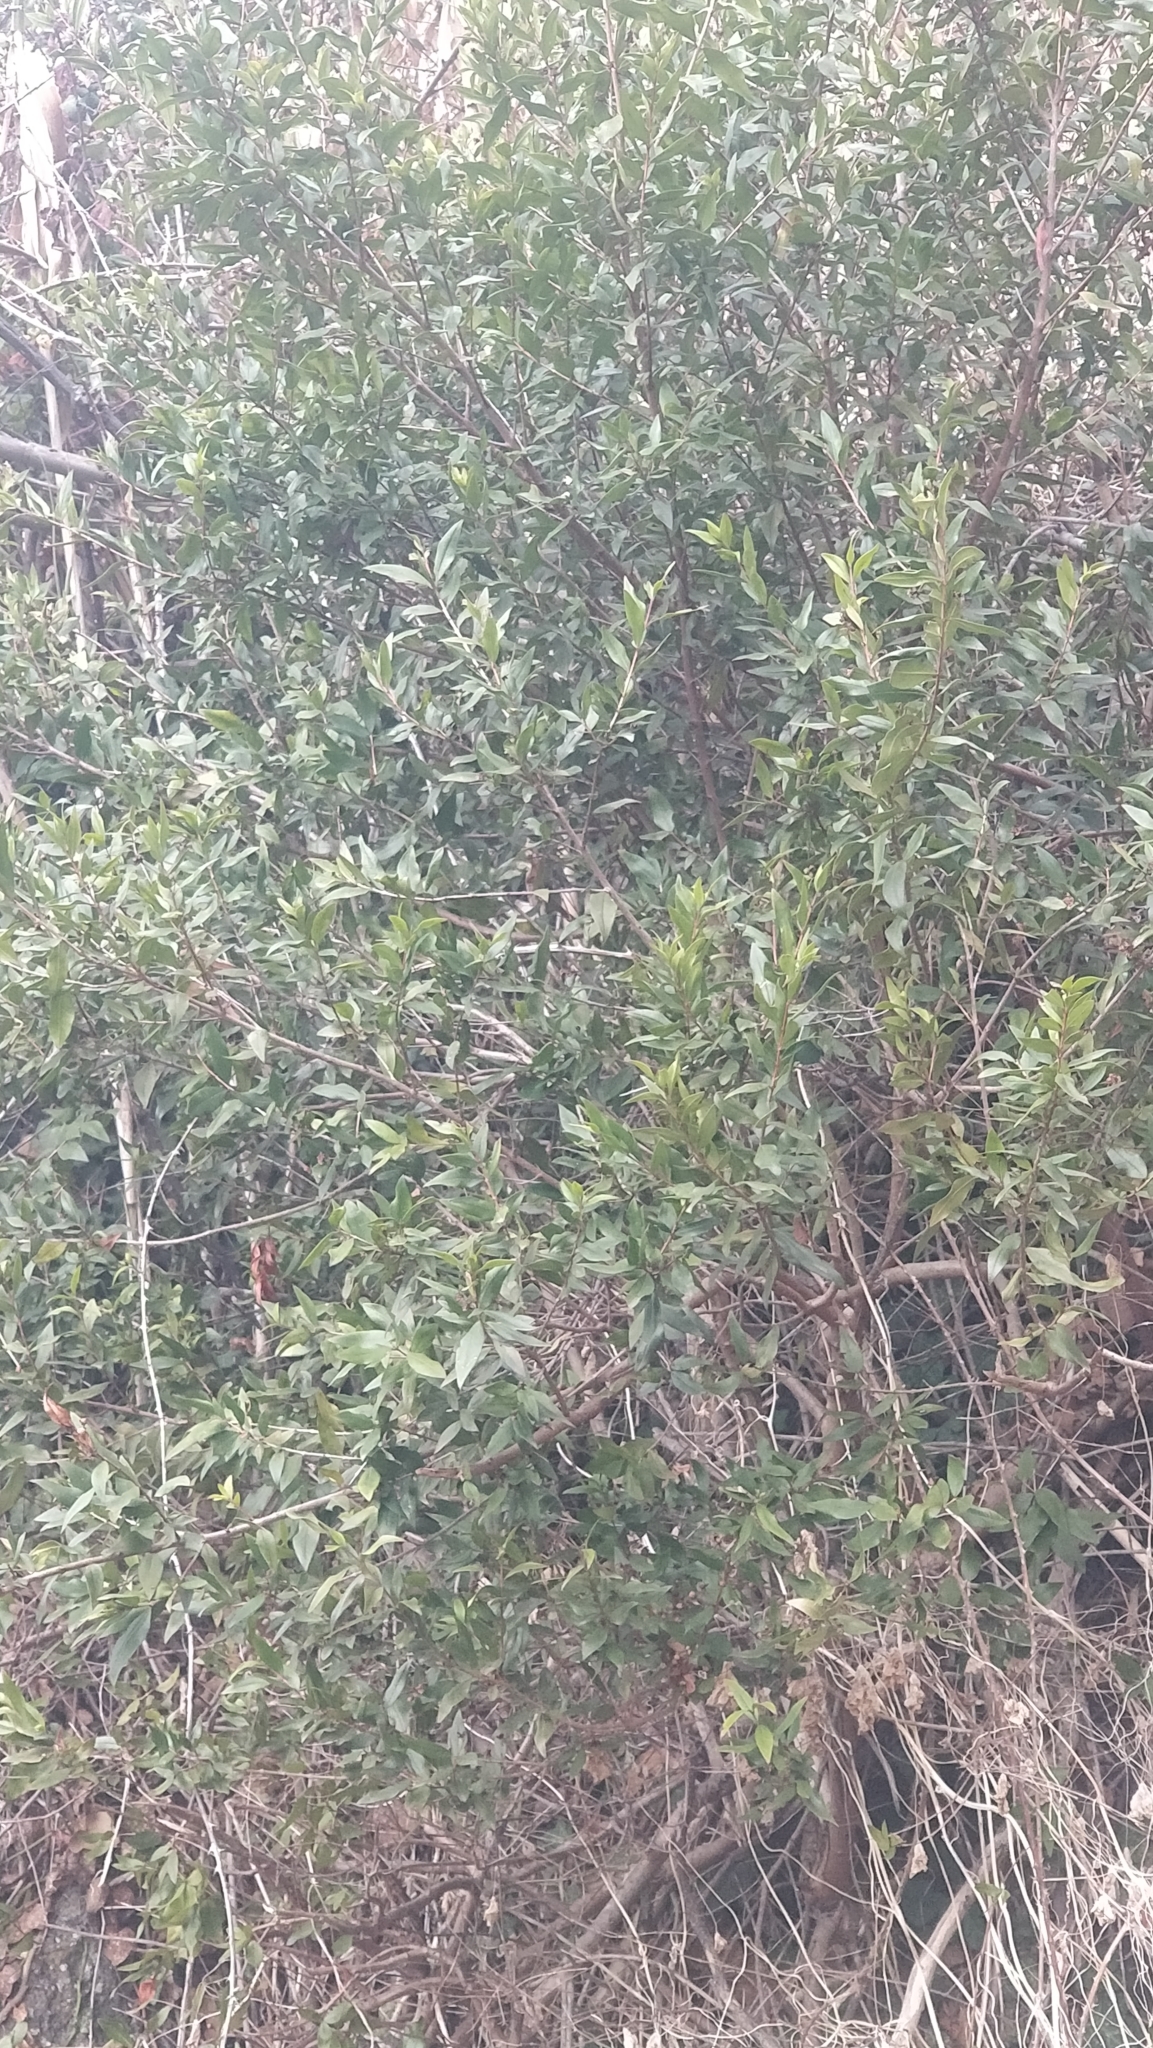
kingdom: Plantae
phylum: Tracheophyta
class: Magnoliopsida
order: Myrtales
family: Myrtaceae
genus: Myrtus
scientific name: Myrtus communis
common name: Myrtle
